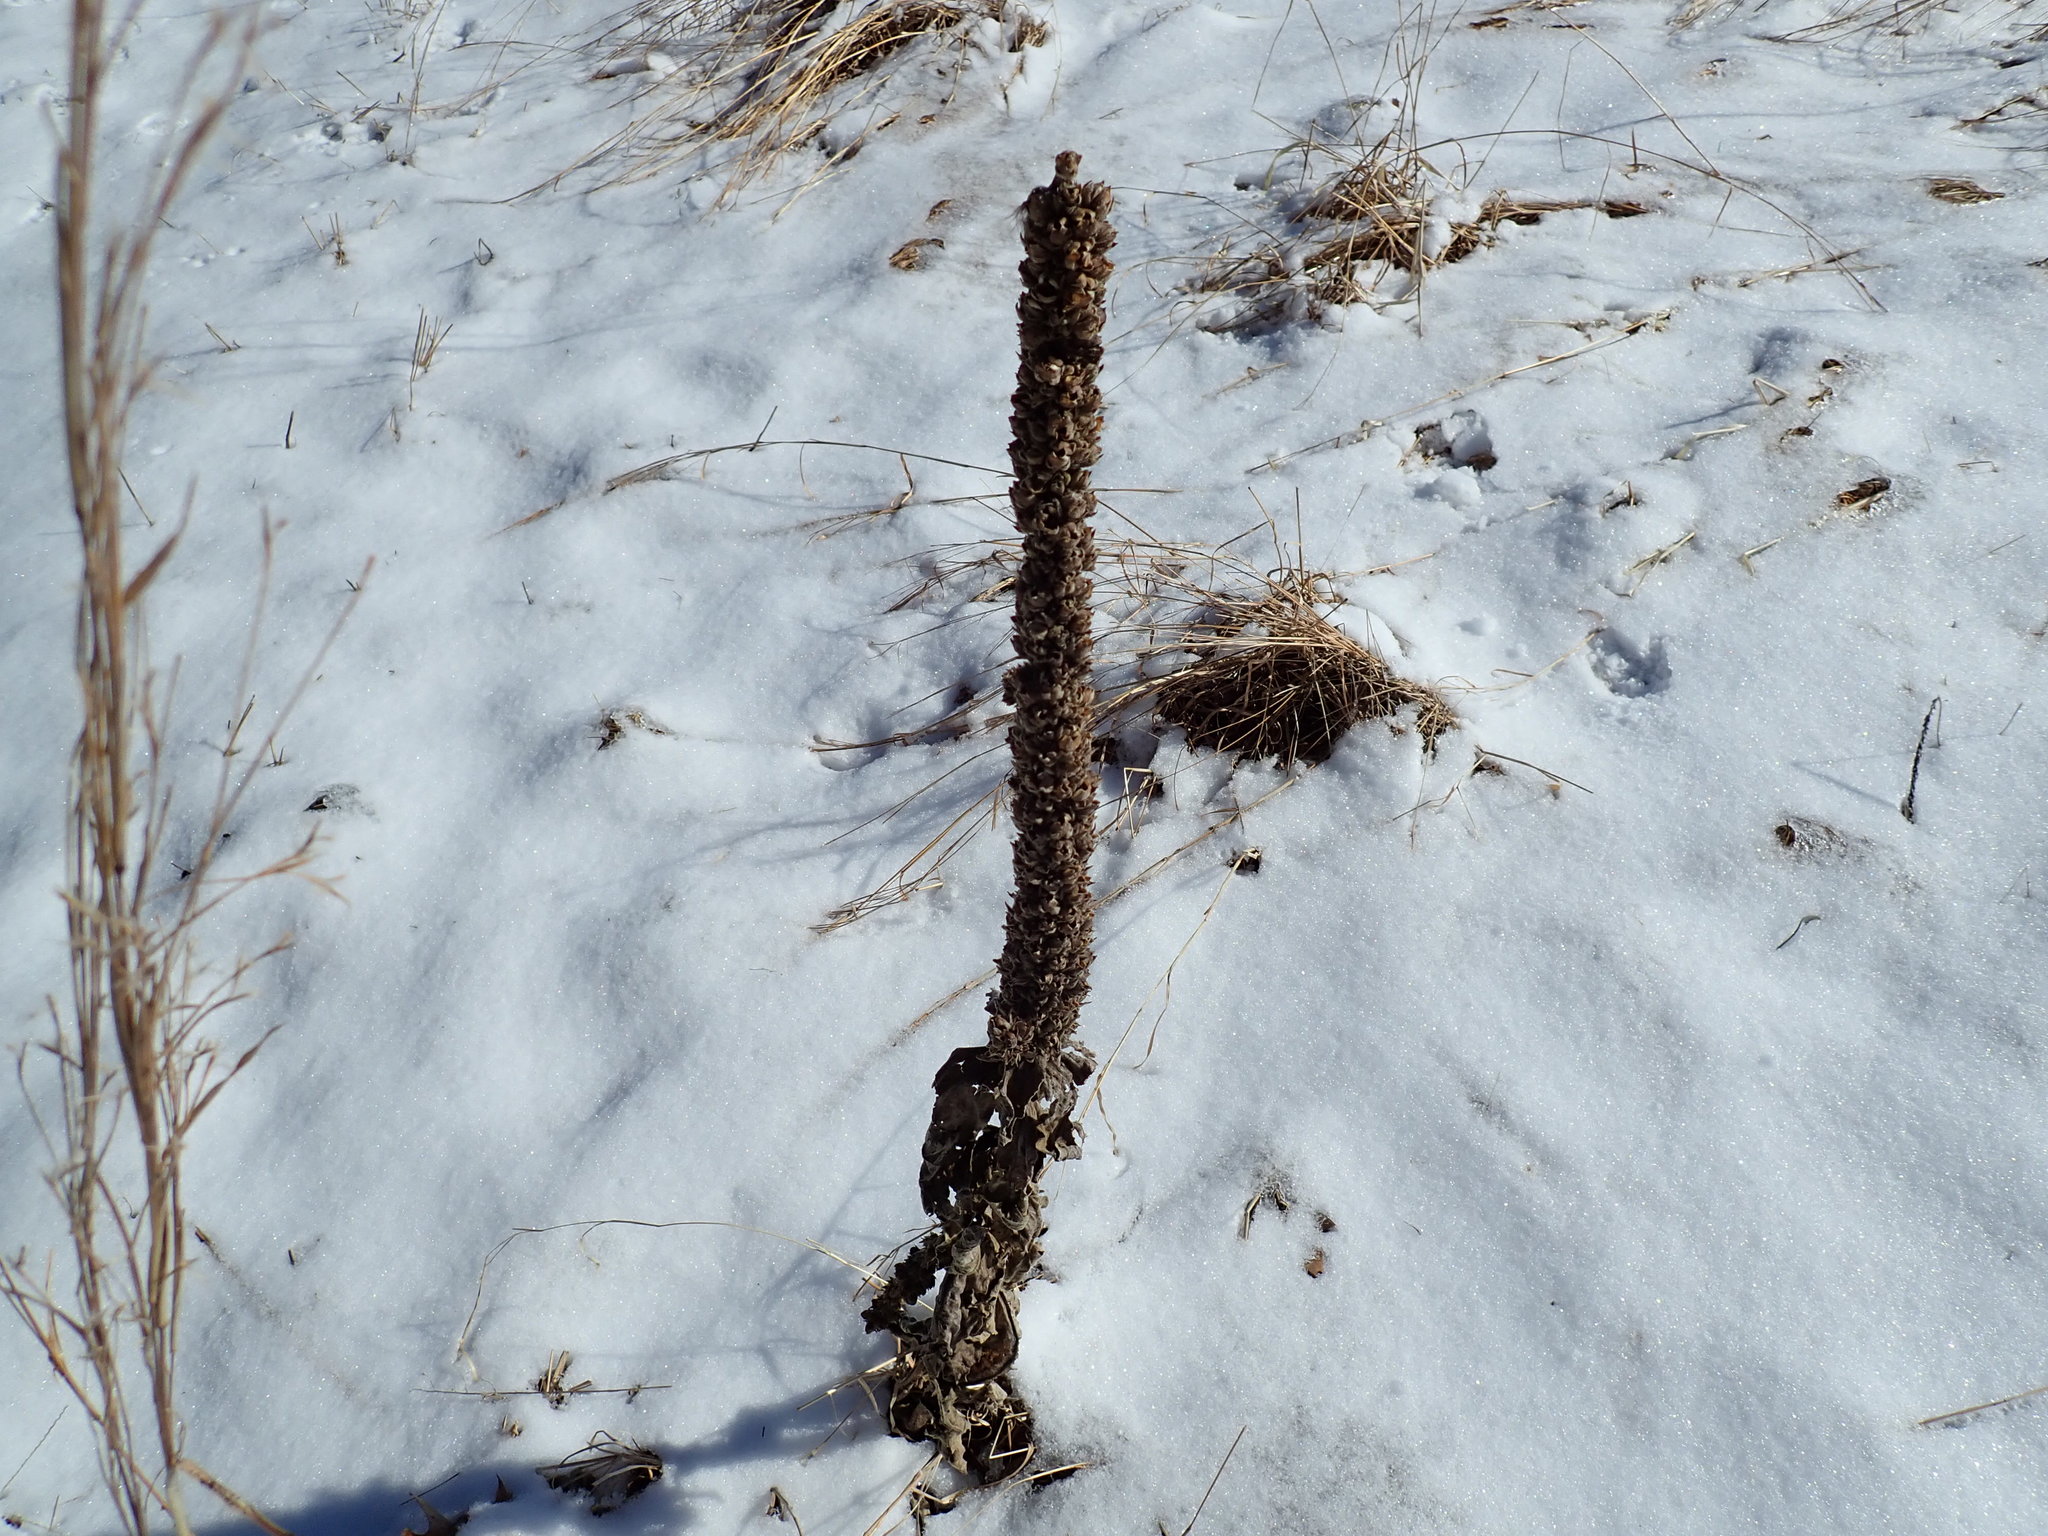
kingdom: Plantae
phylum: Tracheophyta
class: Magnoliopsida
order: Lamiales
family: Scrophulariaceae
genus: Verbascum
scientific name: Verbascum thapsus
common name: Common mullein
